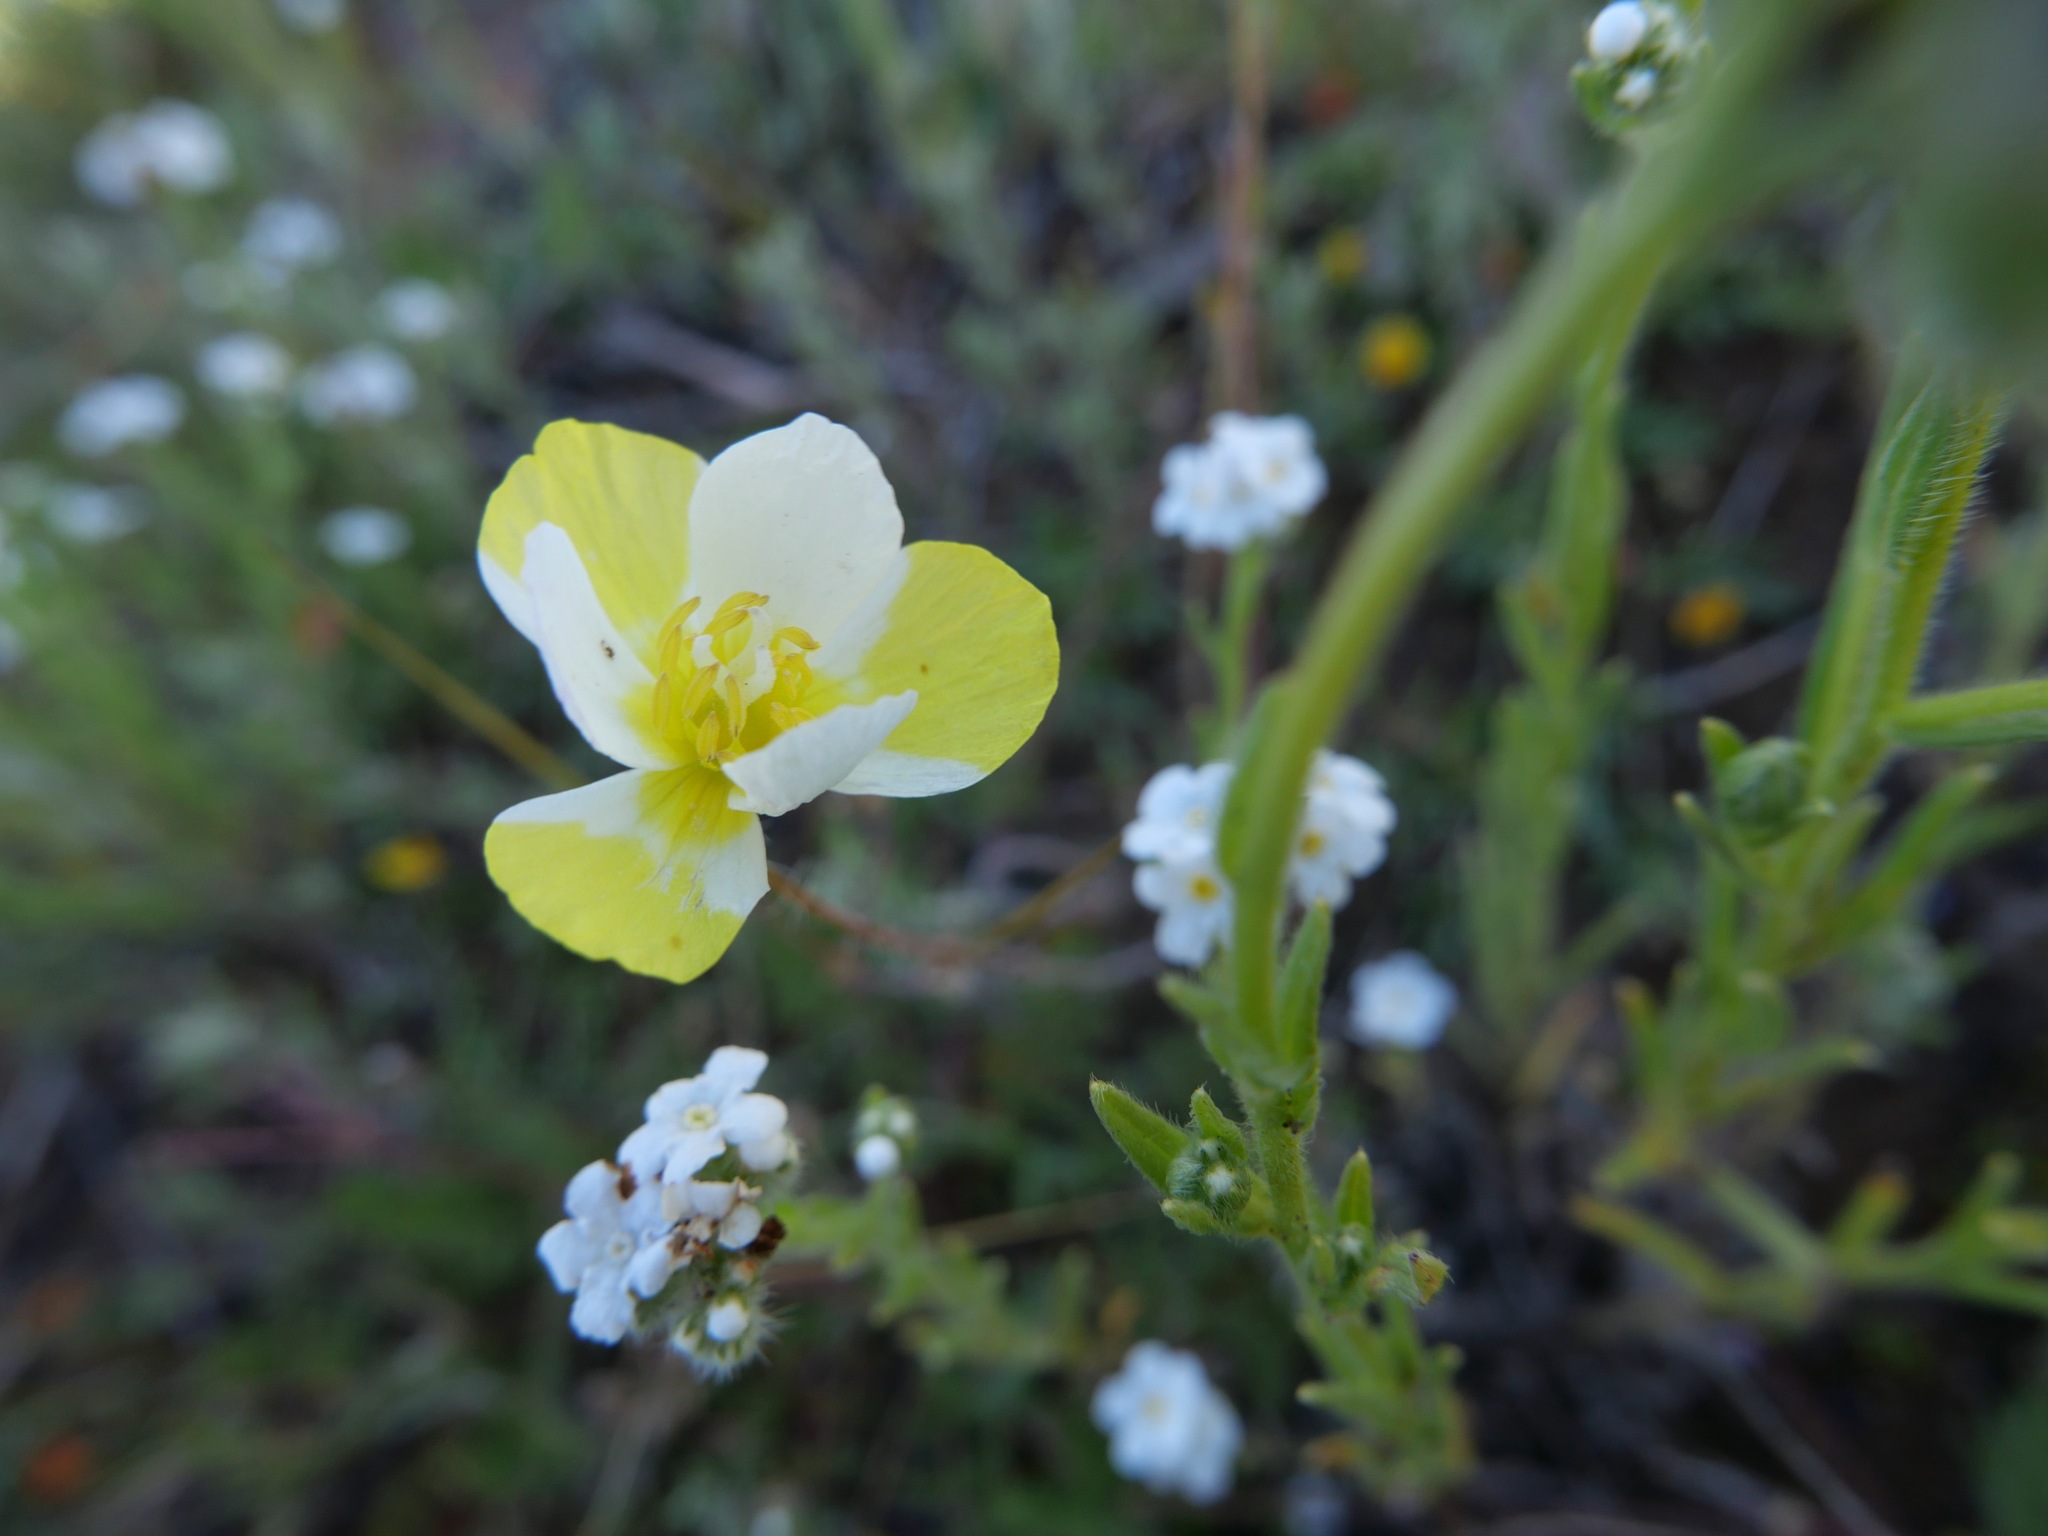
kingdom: Plantae
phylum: Tracheophyta
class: Magnoliopsida
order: Ranunculales
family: Papaveraceae
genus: Platystigma
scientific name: Platystigma lineare
